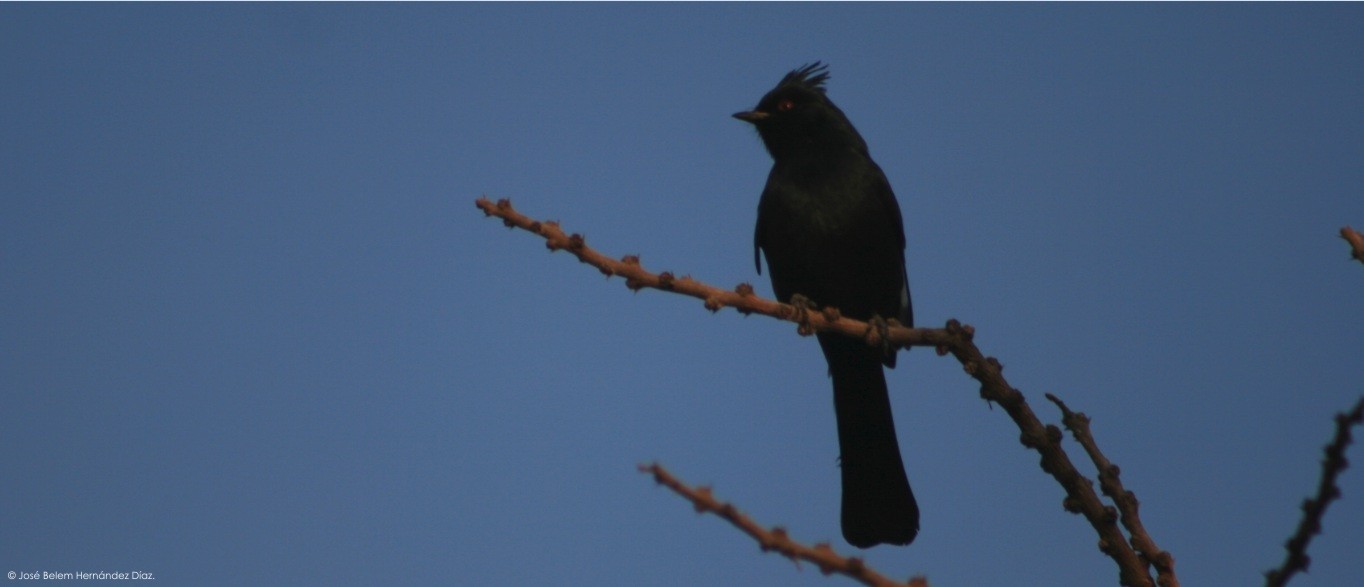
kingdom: Animalia
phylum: Chordata
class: Aves
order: Passeriformes
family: Ptilogonatidae
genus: Phainopepla
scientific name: Phainopepla nitens
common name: Phainopepla
